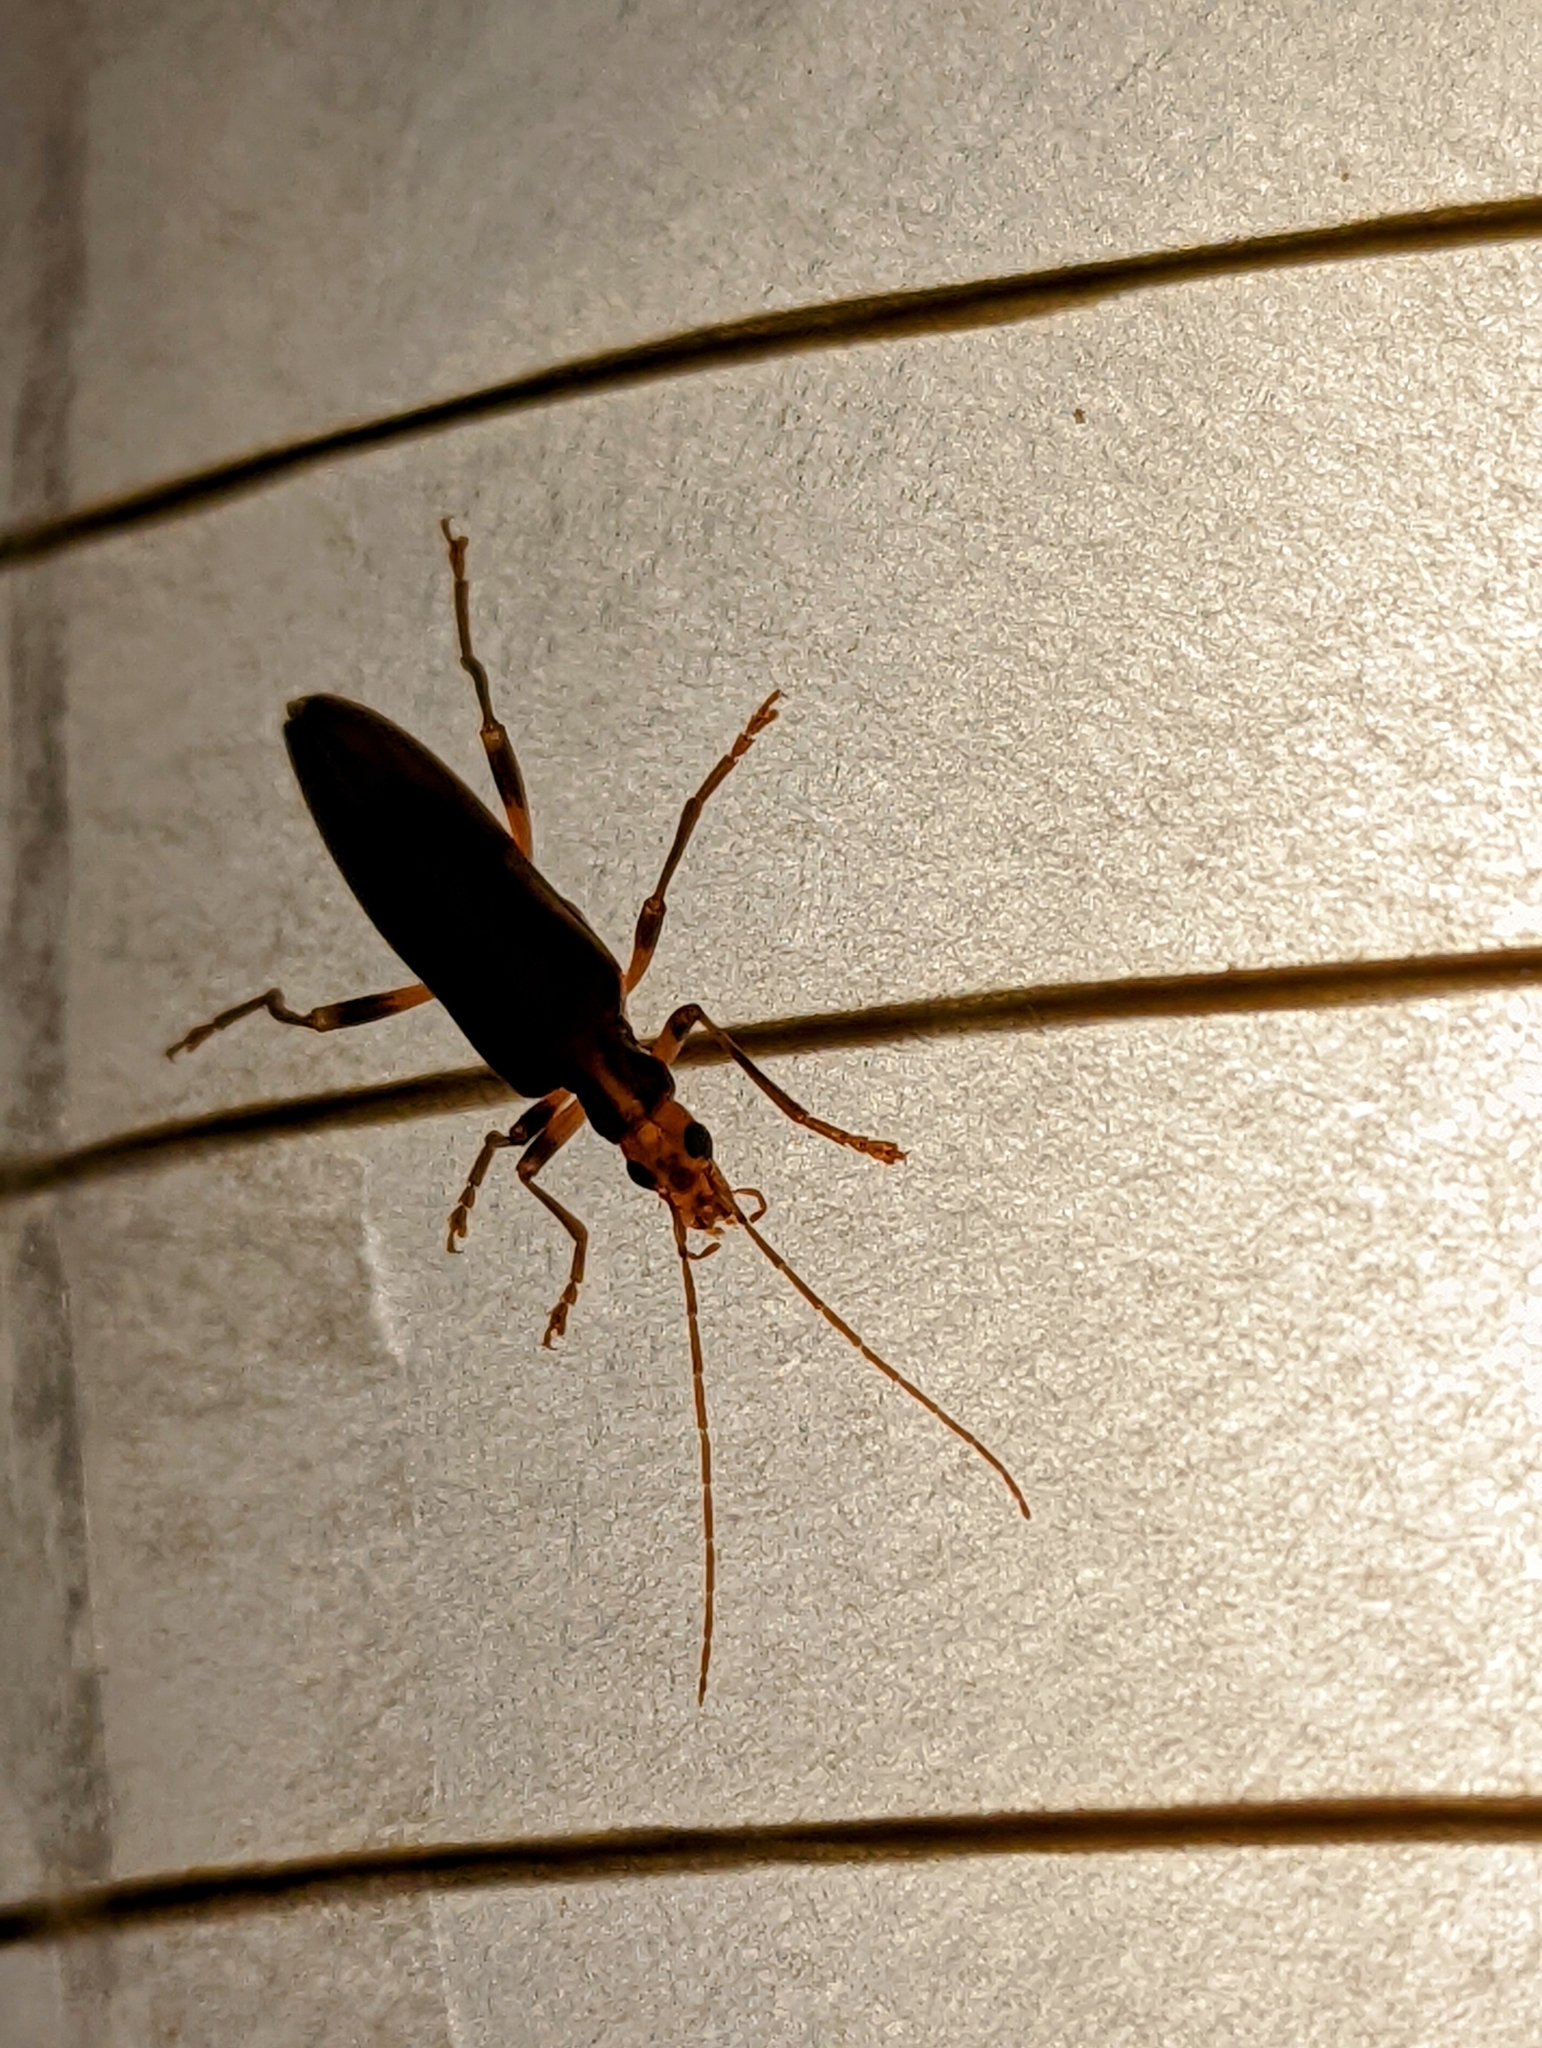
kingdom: Animalia
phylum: Arthropoda
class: Insecta
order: Coleoptera
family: Oedemeridae
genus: Oedemera
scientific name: Oedemera femoralis
